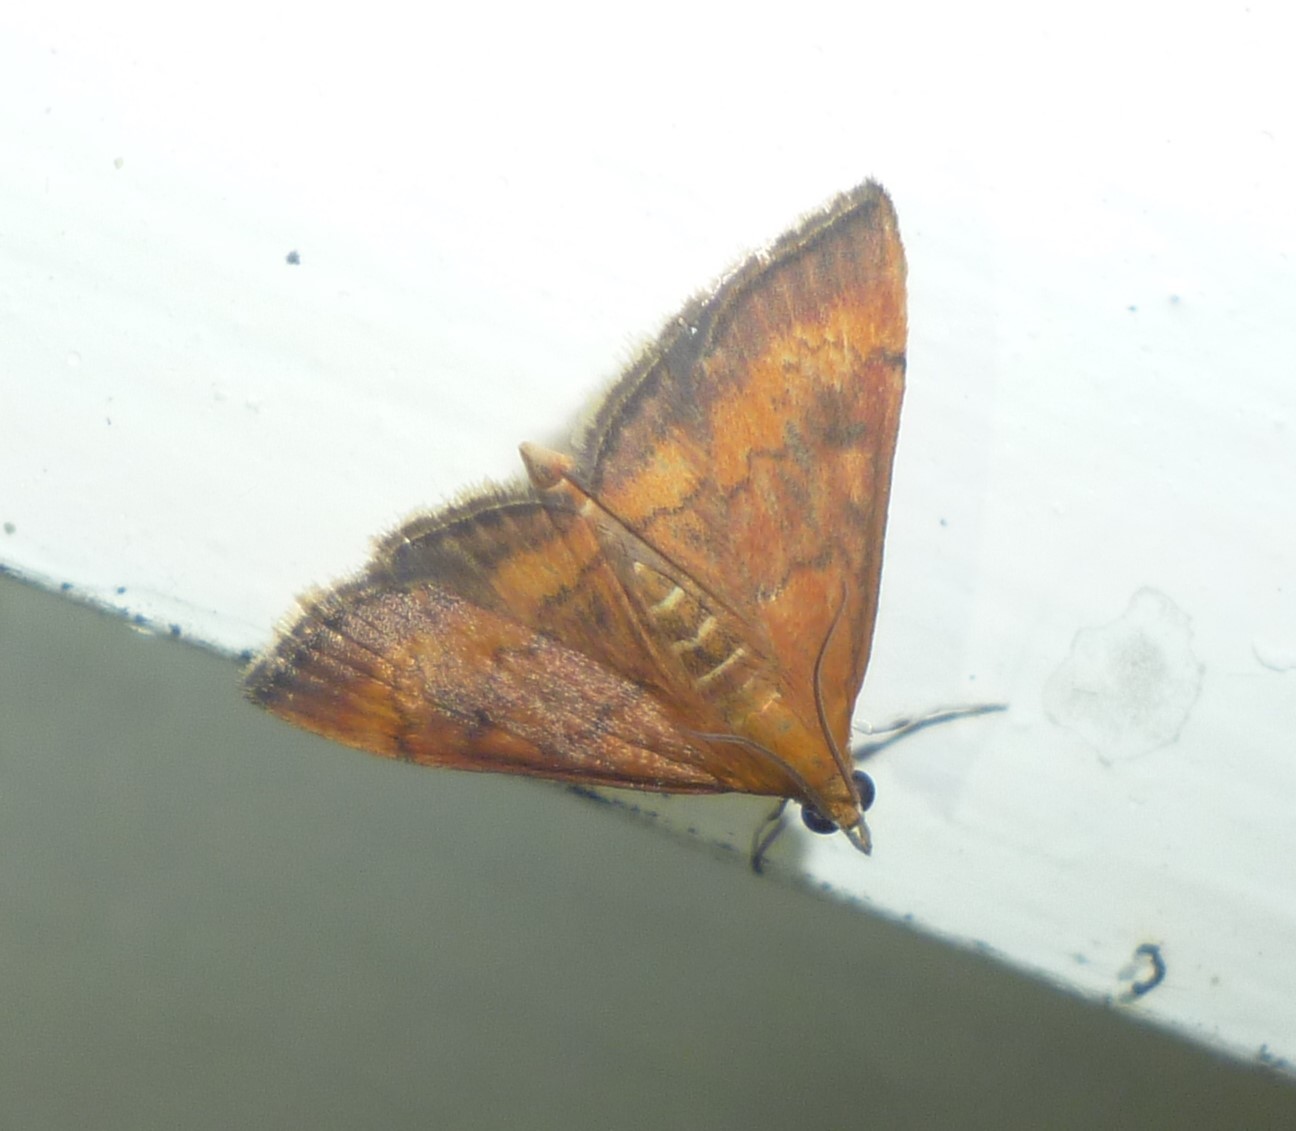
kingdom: Animalia
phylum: Arthropoda
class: Insecta
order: Lepidoptera
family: Crambidae
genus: Pyrausta
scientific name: Pyrausta rubricalis
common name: Variable reddish pyrausta
